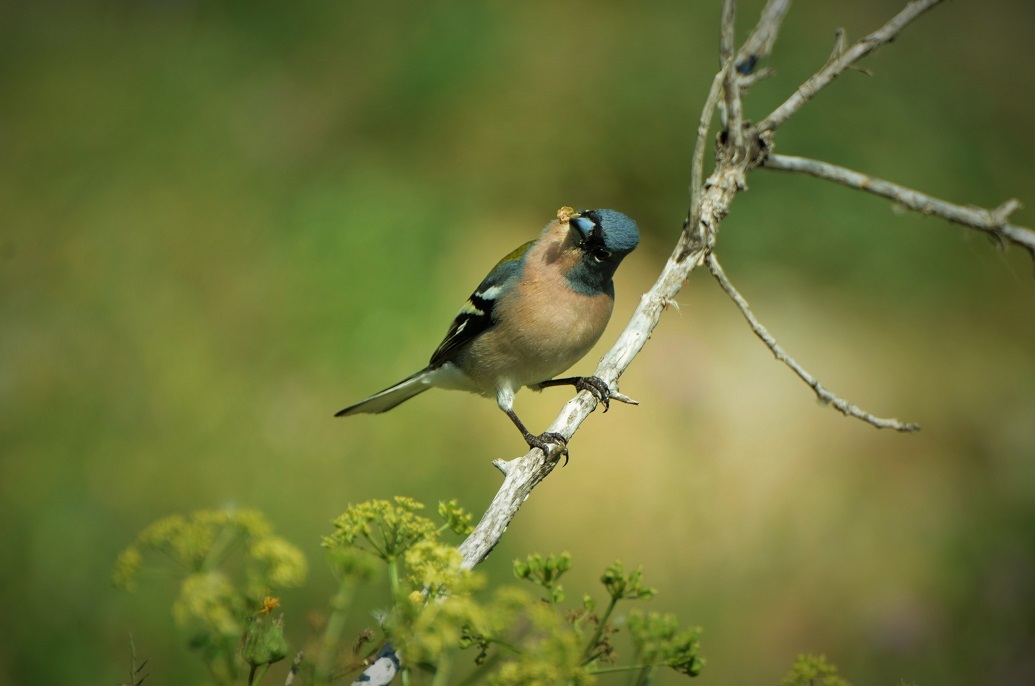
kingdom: Animalia
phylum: Chordata
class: Aves
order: Passeriformes
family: Fringillidae
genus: Fringilla
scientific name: Fringilla spodiogenys
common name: African chaffinch
